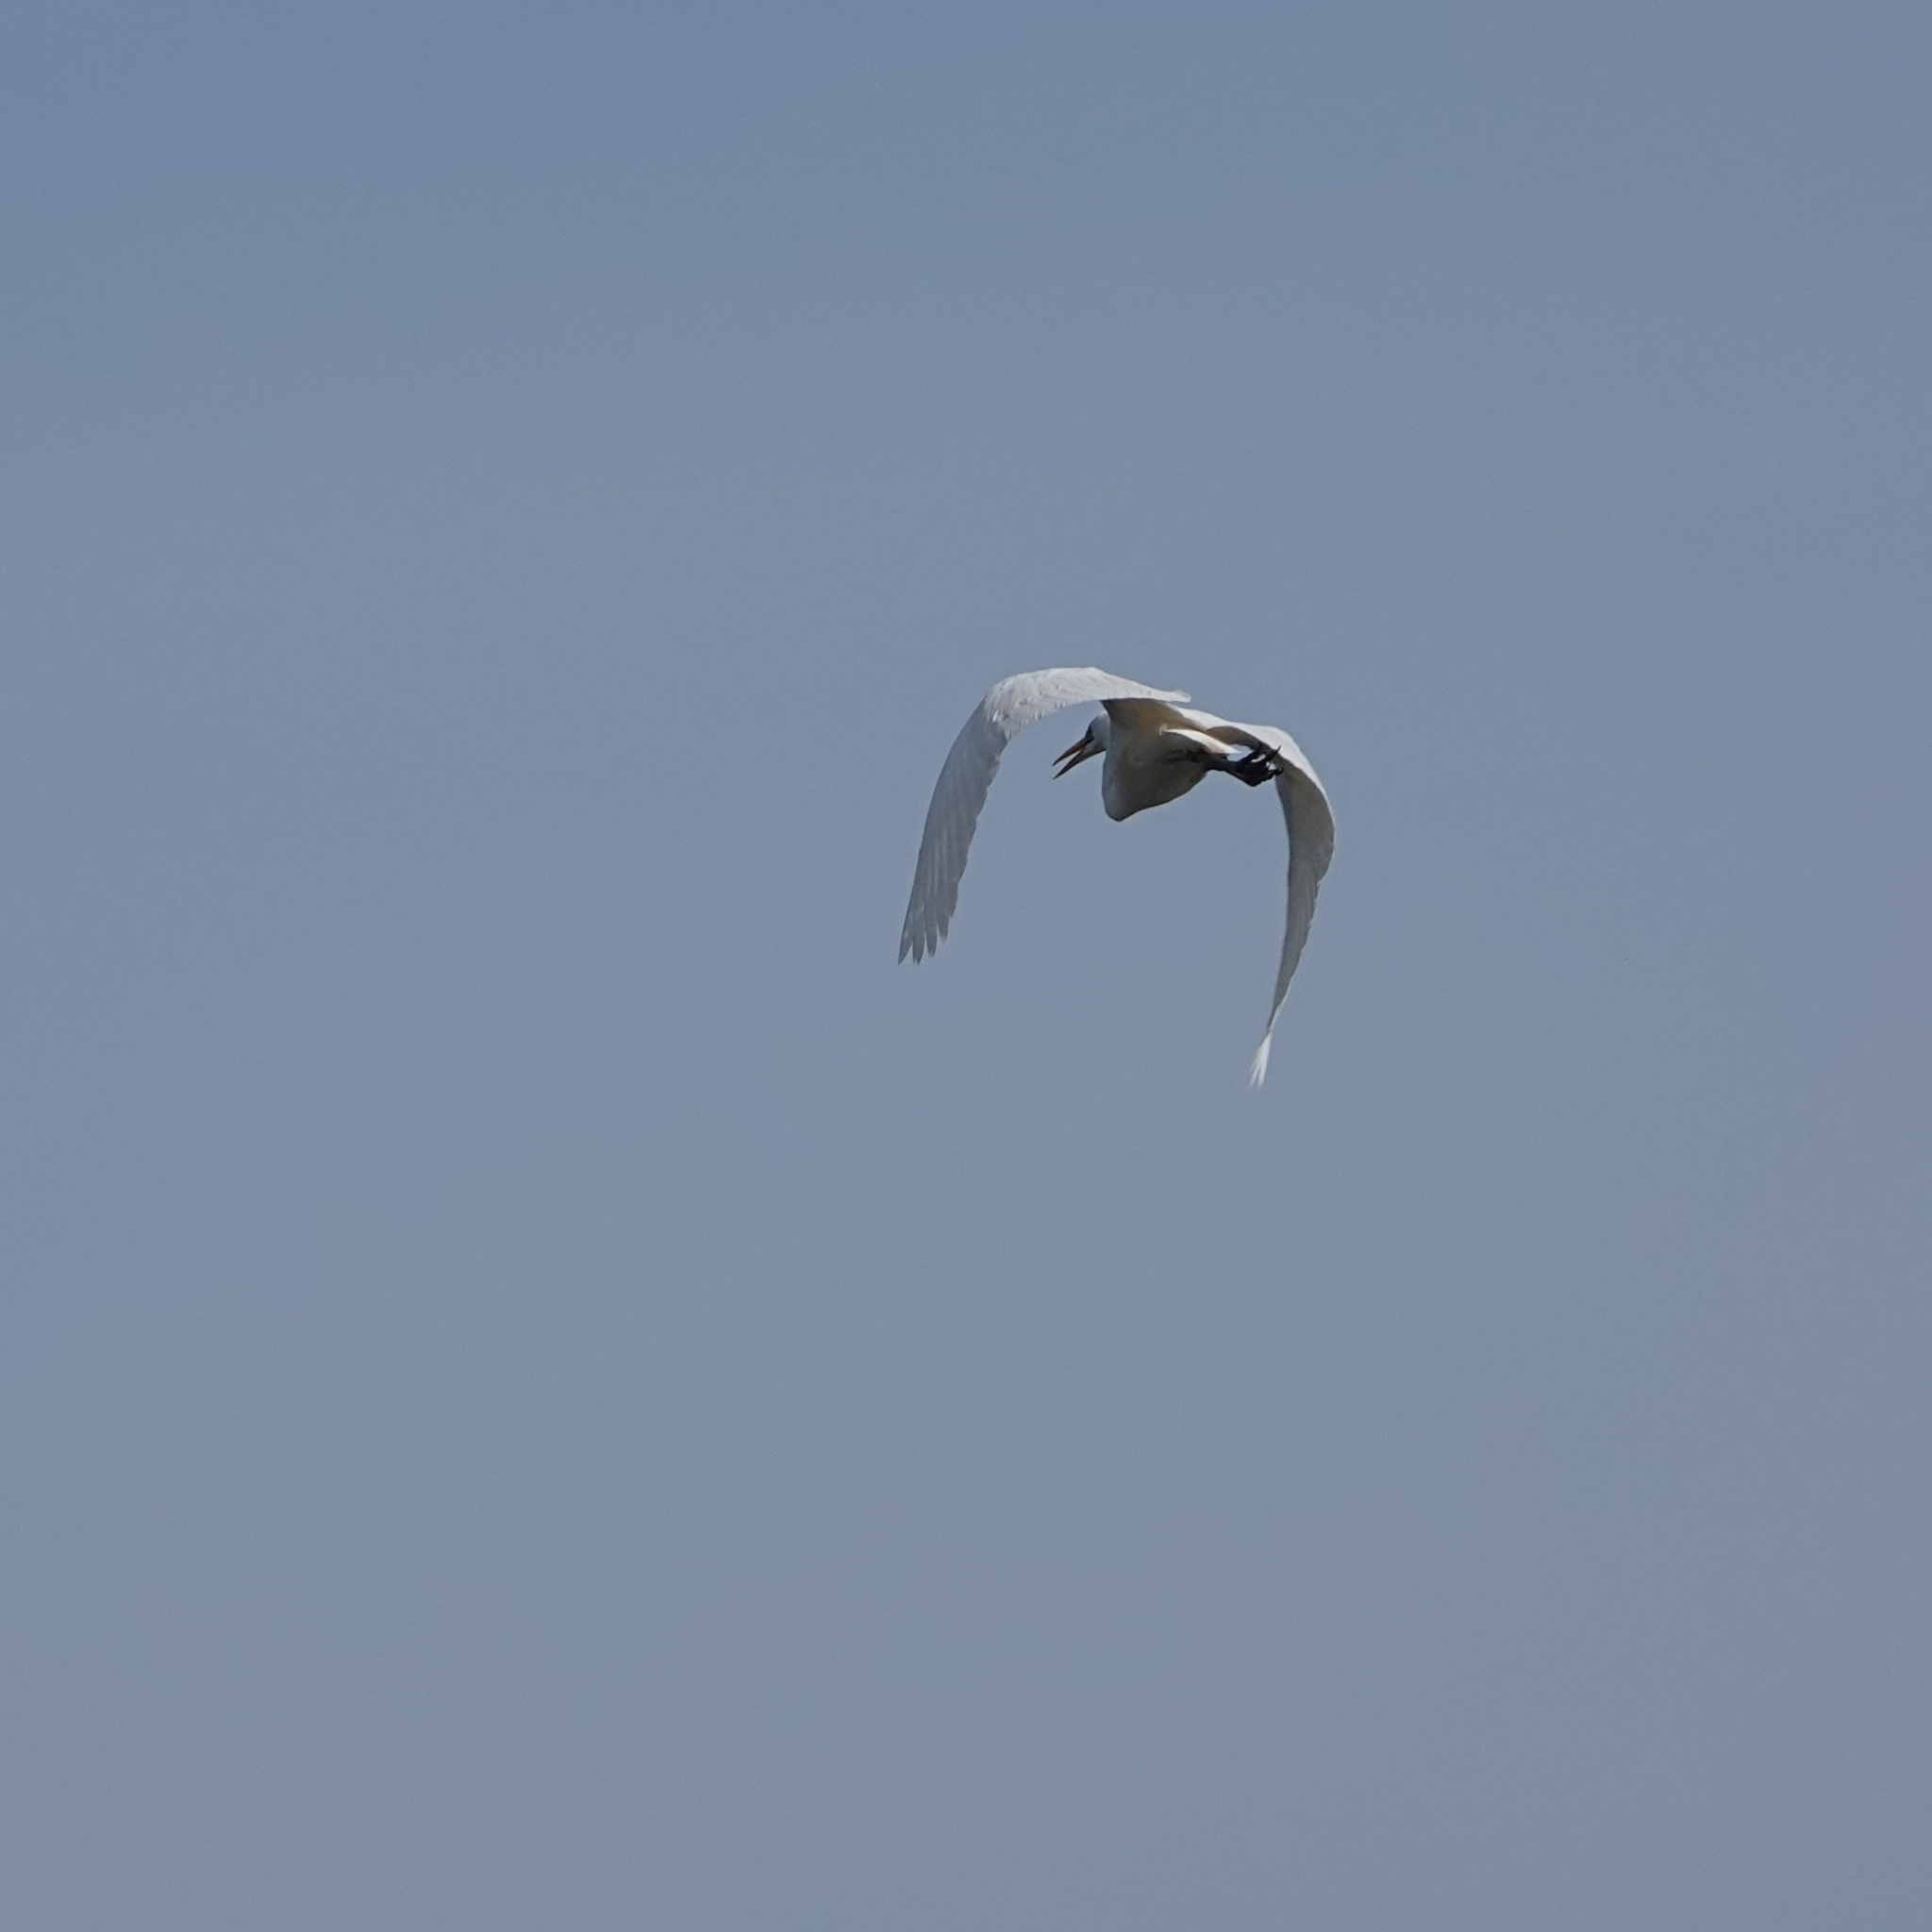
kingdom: Animalia
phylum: Chordata
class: Aves
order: Pelecaniformes
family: Ardeidae
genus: Ardea
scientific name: Ardea alba
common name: Great egret
